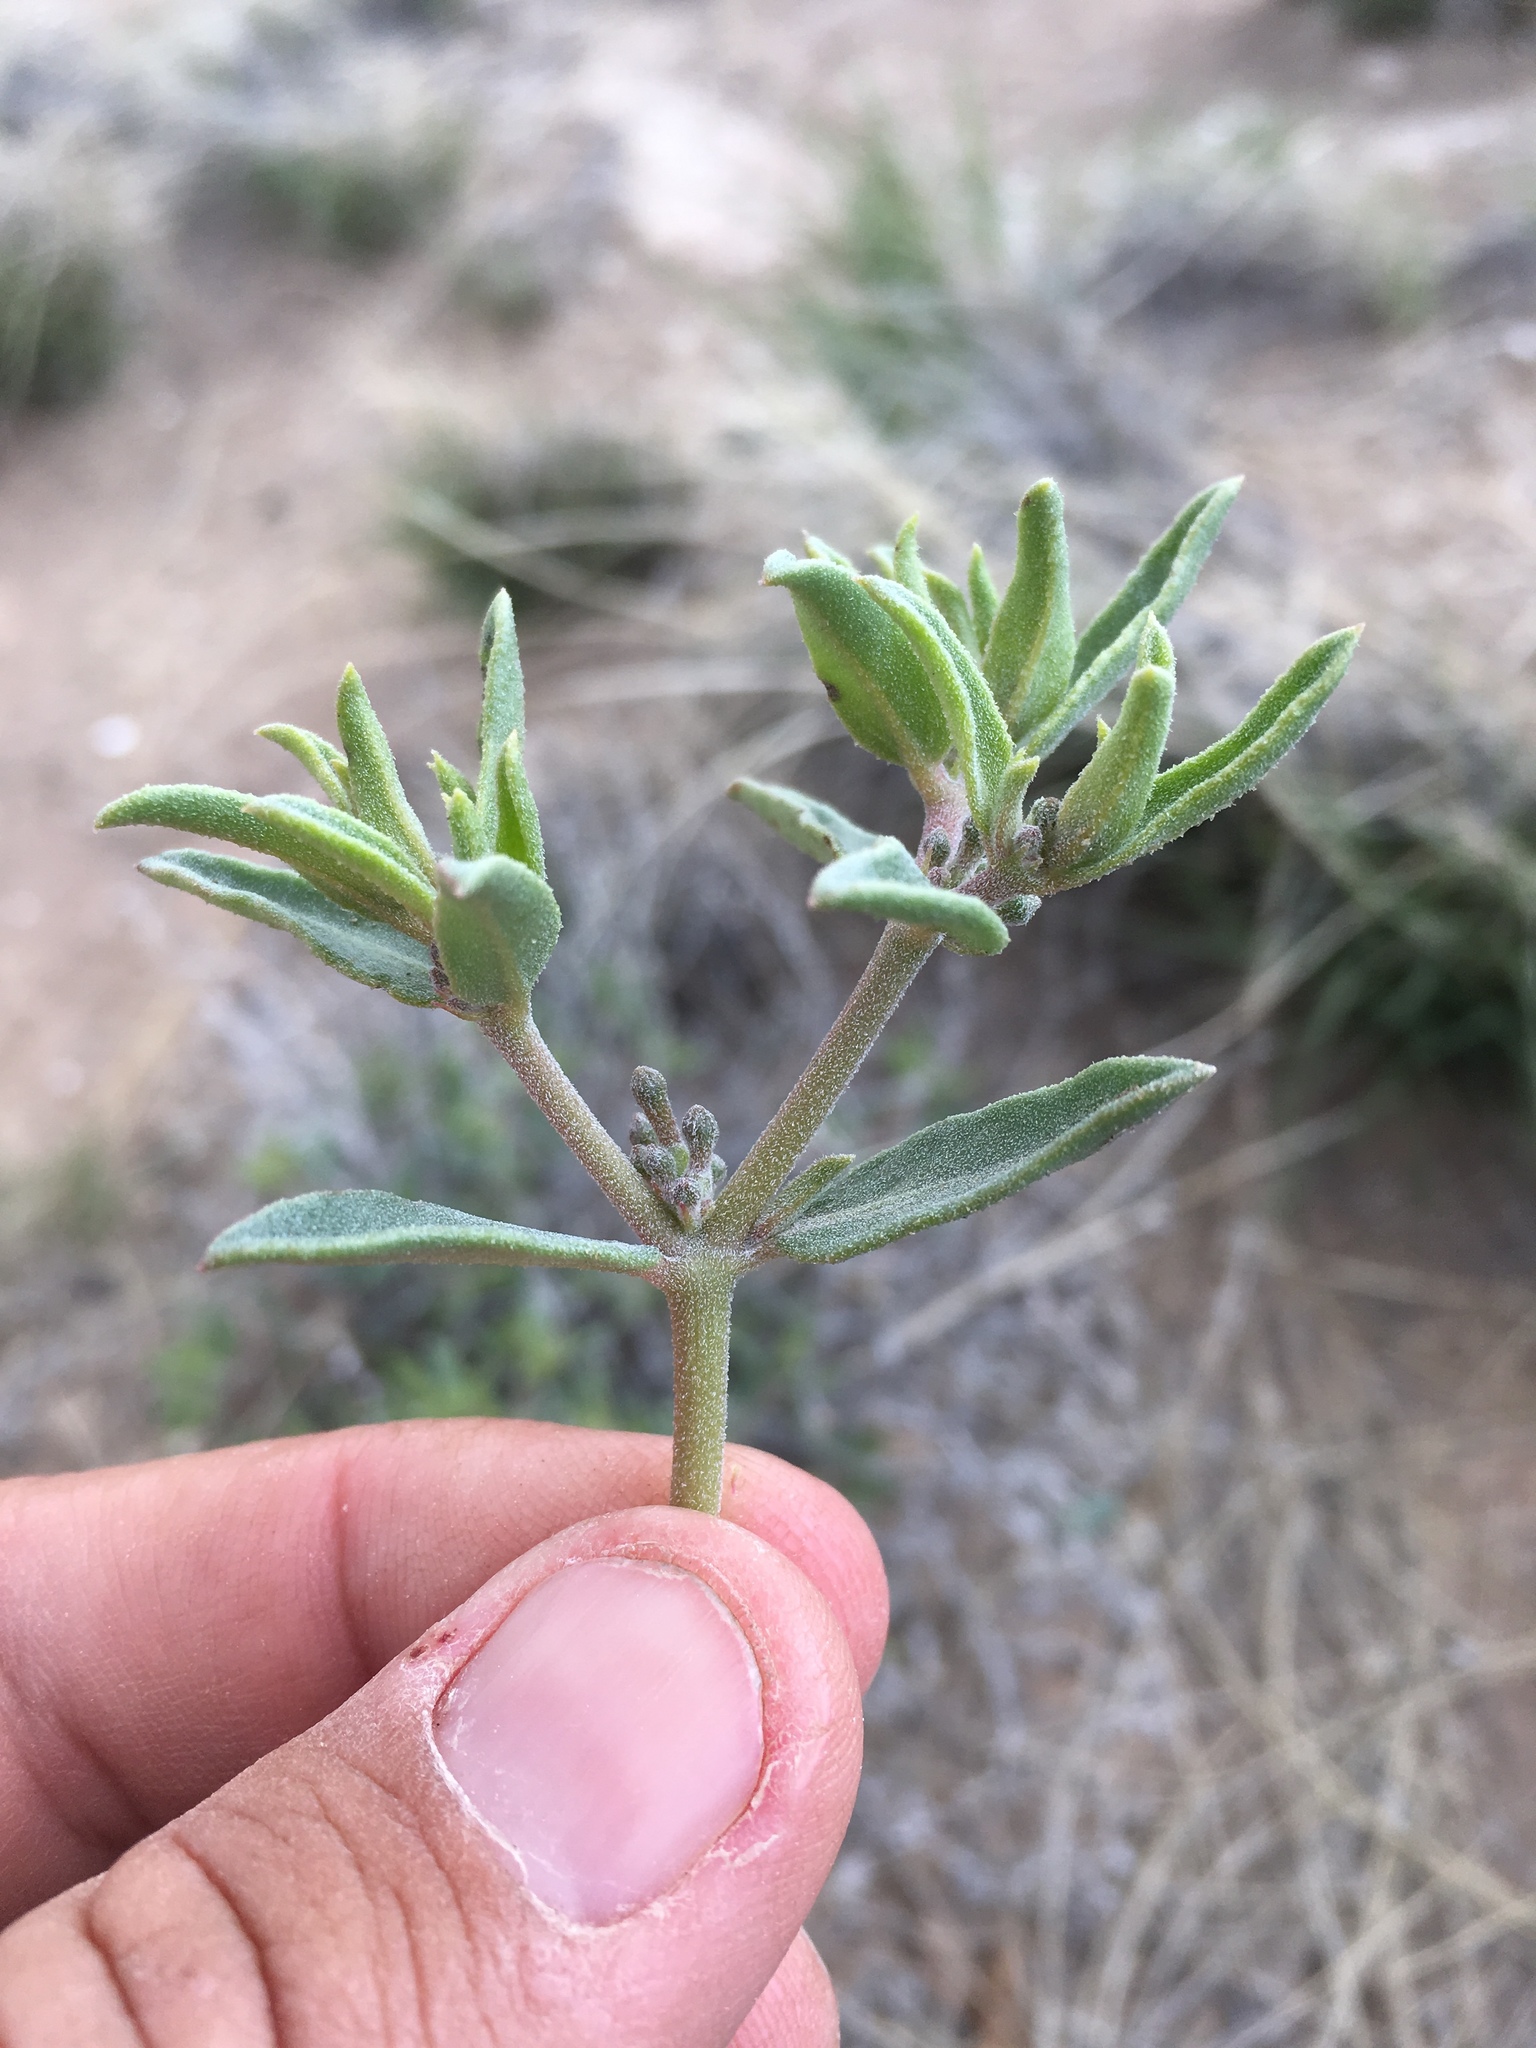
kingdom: Plantae
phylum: Tracheophyta
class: Magnoliopsida
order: Caryophyllales
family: Nyctaginaceae
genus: Acleisanthes
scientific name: Acleisanthes lanceolata
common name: Gypsum moonpod
